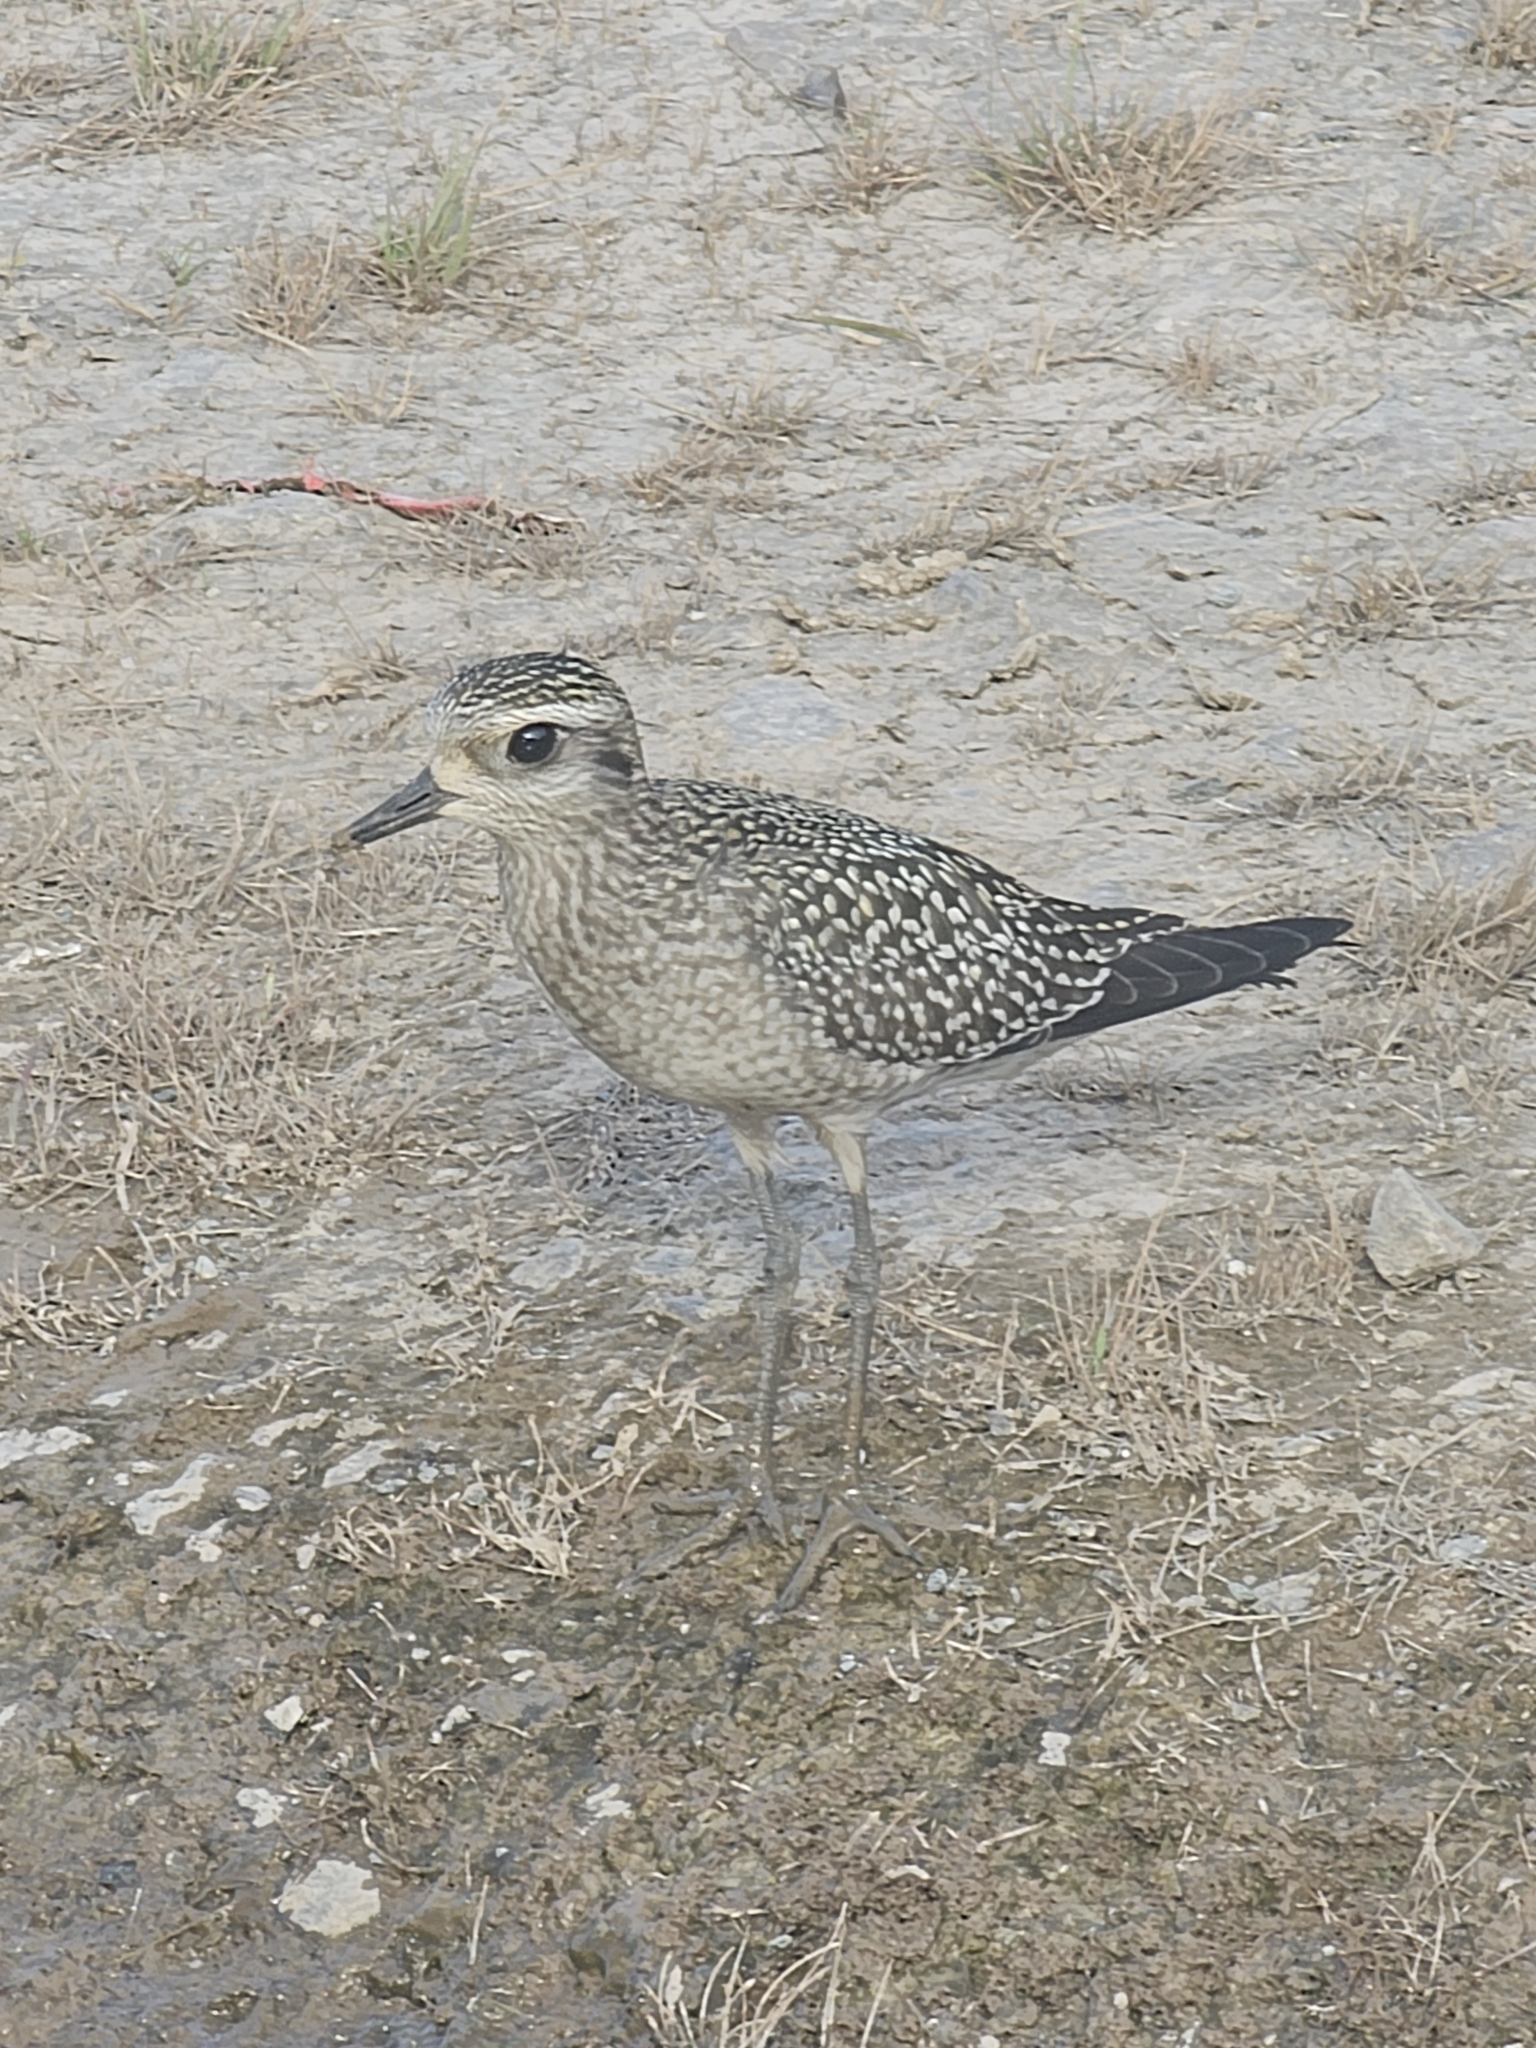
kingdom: Animalia
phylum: Chordata
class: Aves
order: Charadriiformes
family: Charadriidae
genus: Pluvialis
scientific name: Pluvialis dominica
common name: American golden plover
